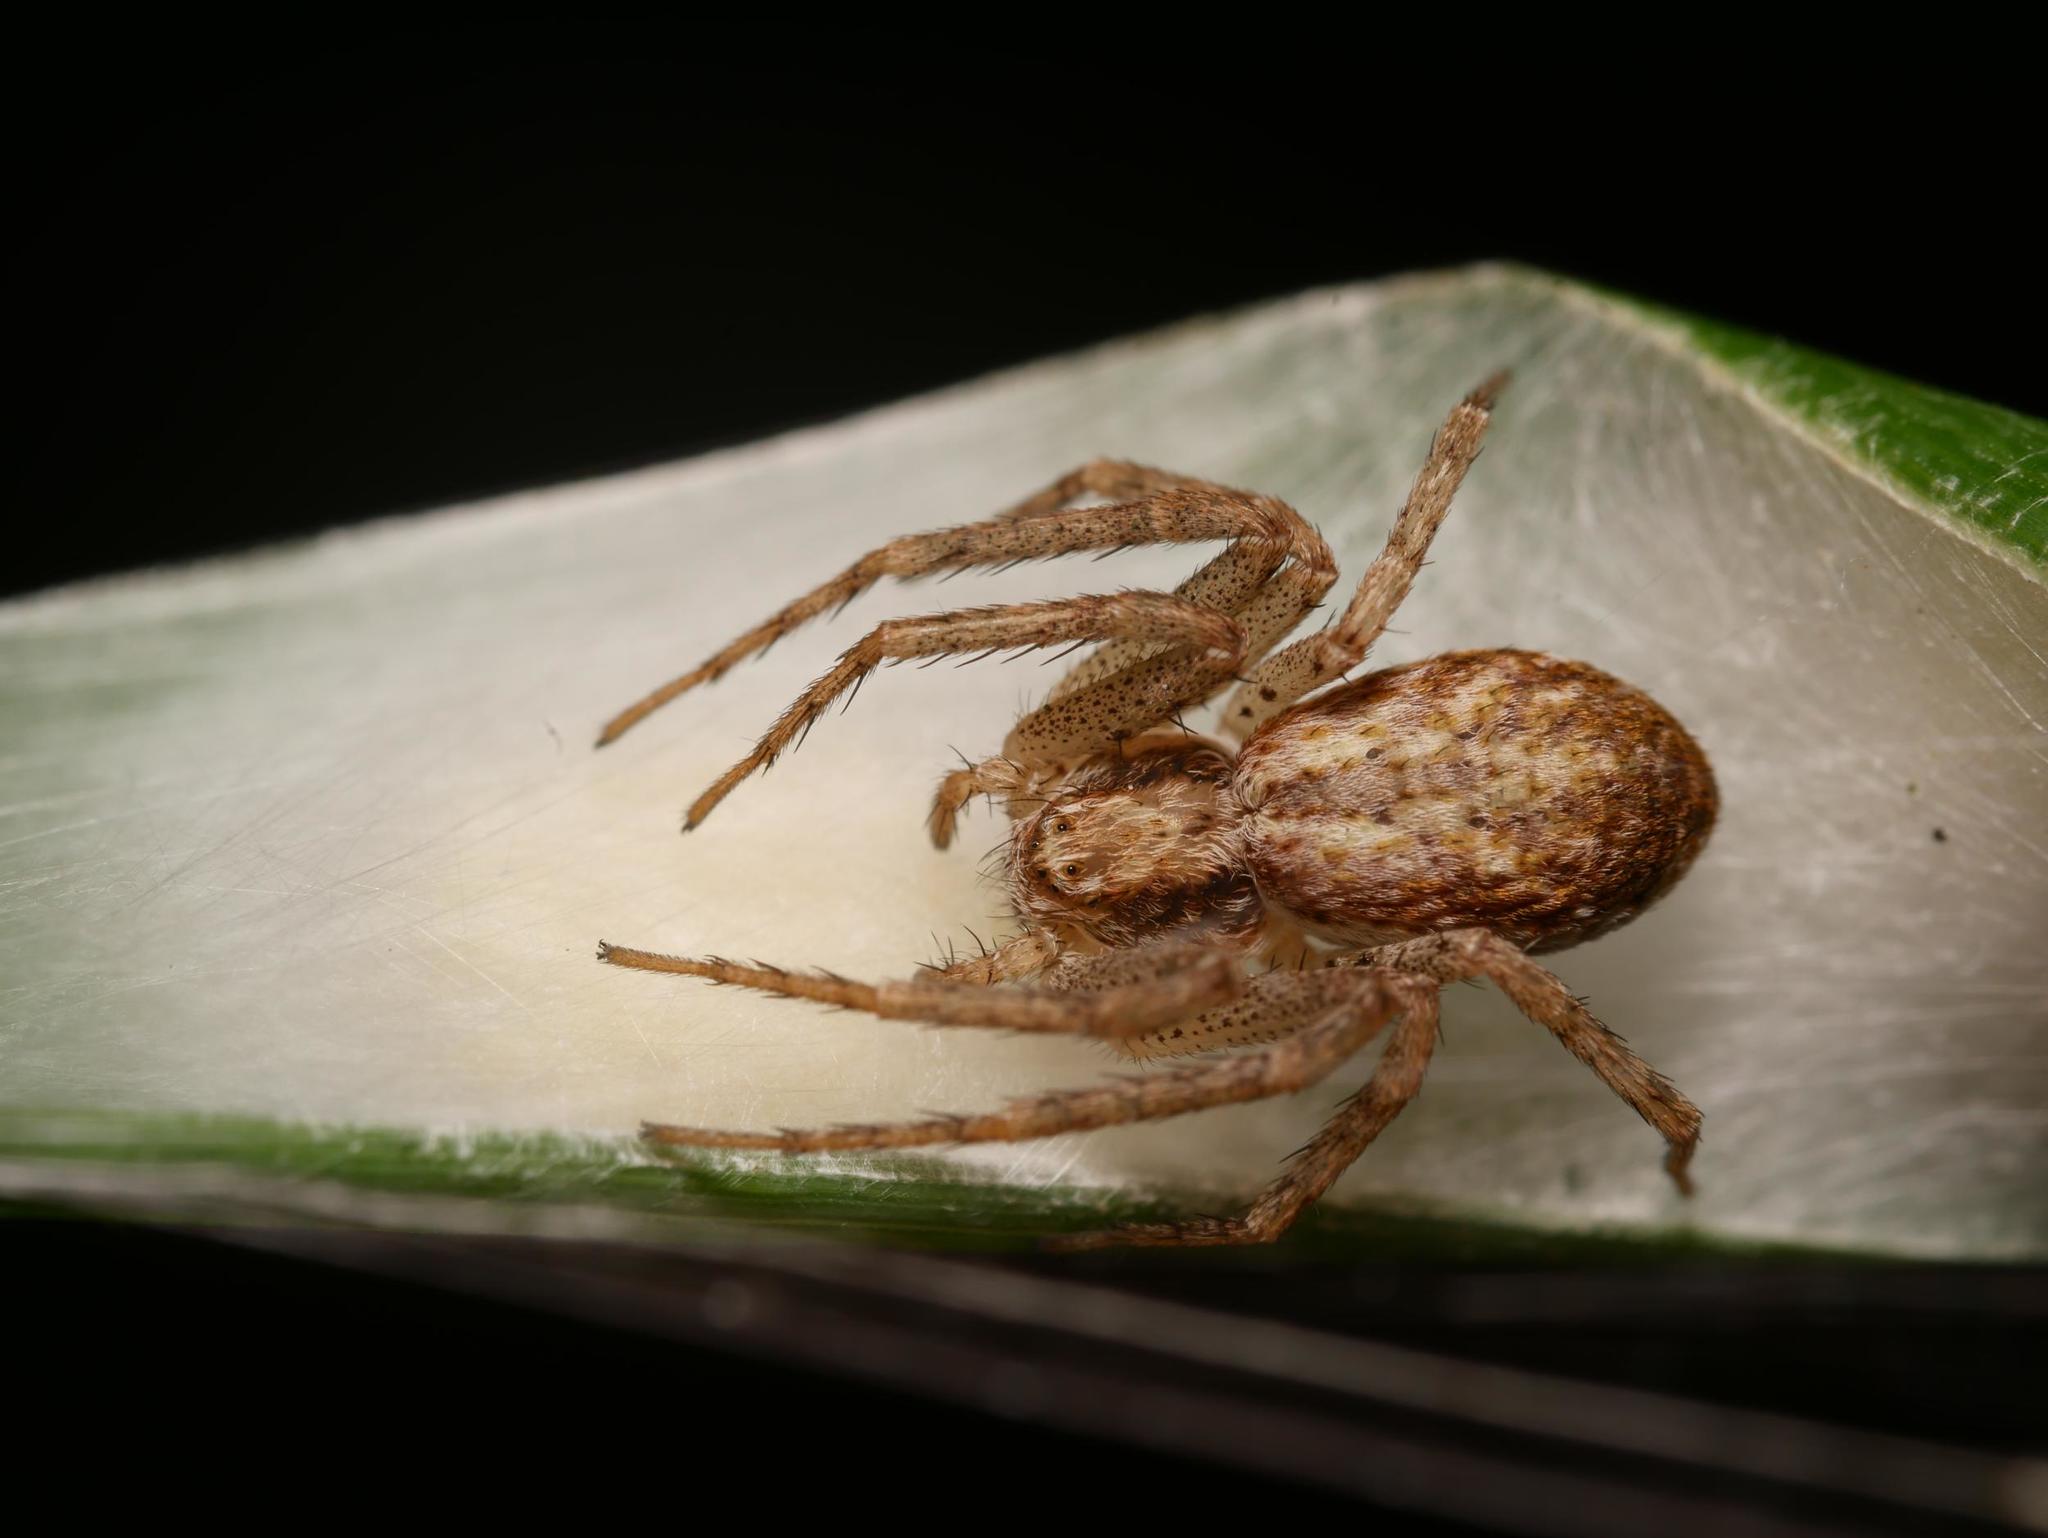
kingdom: Animalia
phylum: Arthropoda
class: Arachnida
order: Araneae
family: Philodromidae
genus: Philodromus
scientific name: Philodromus dispar
